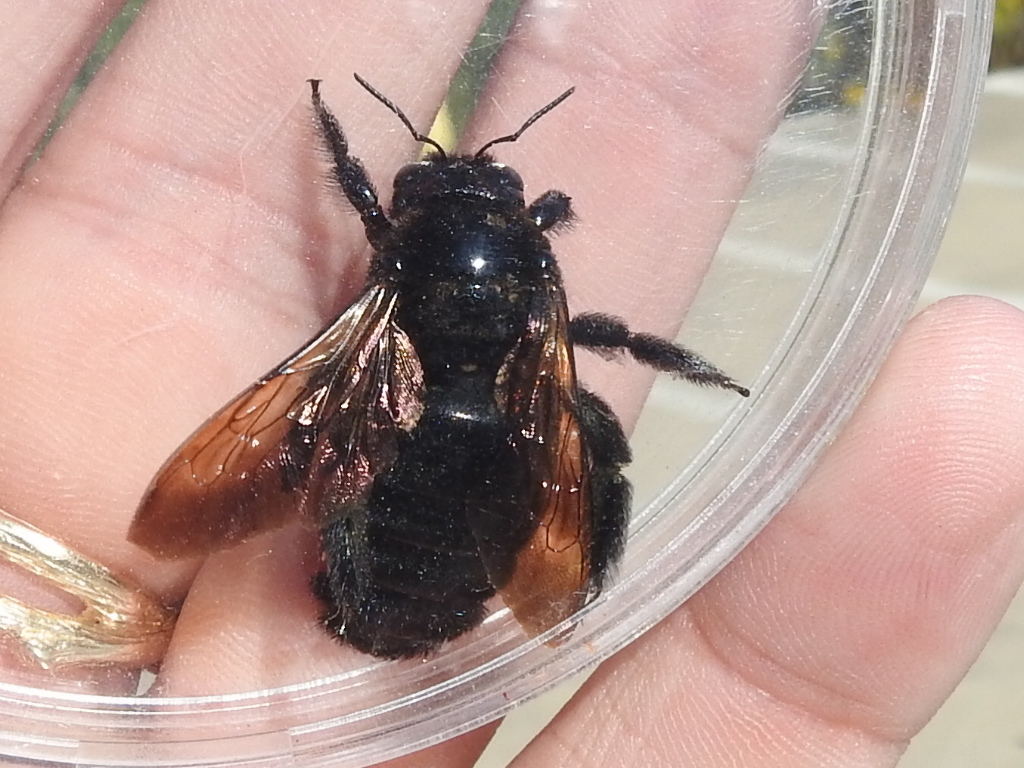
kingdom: Animalia
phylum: Arthropoda
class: Insecta
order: Hymenoptera
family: Apidae
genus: Xylocopa
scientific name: Xylocopa sonorina
